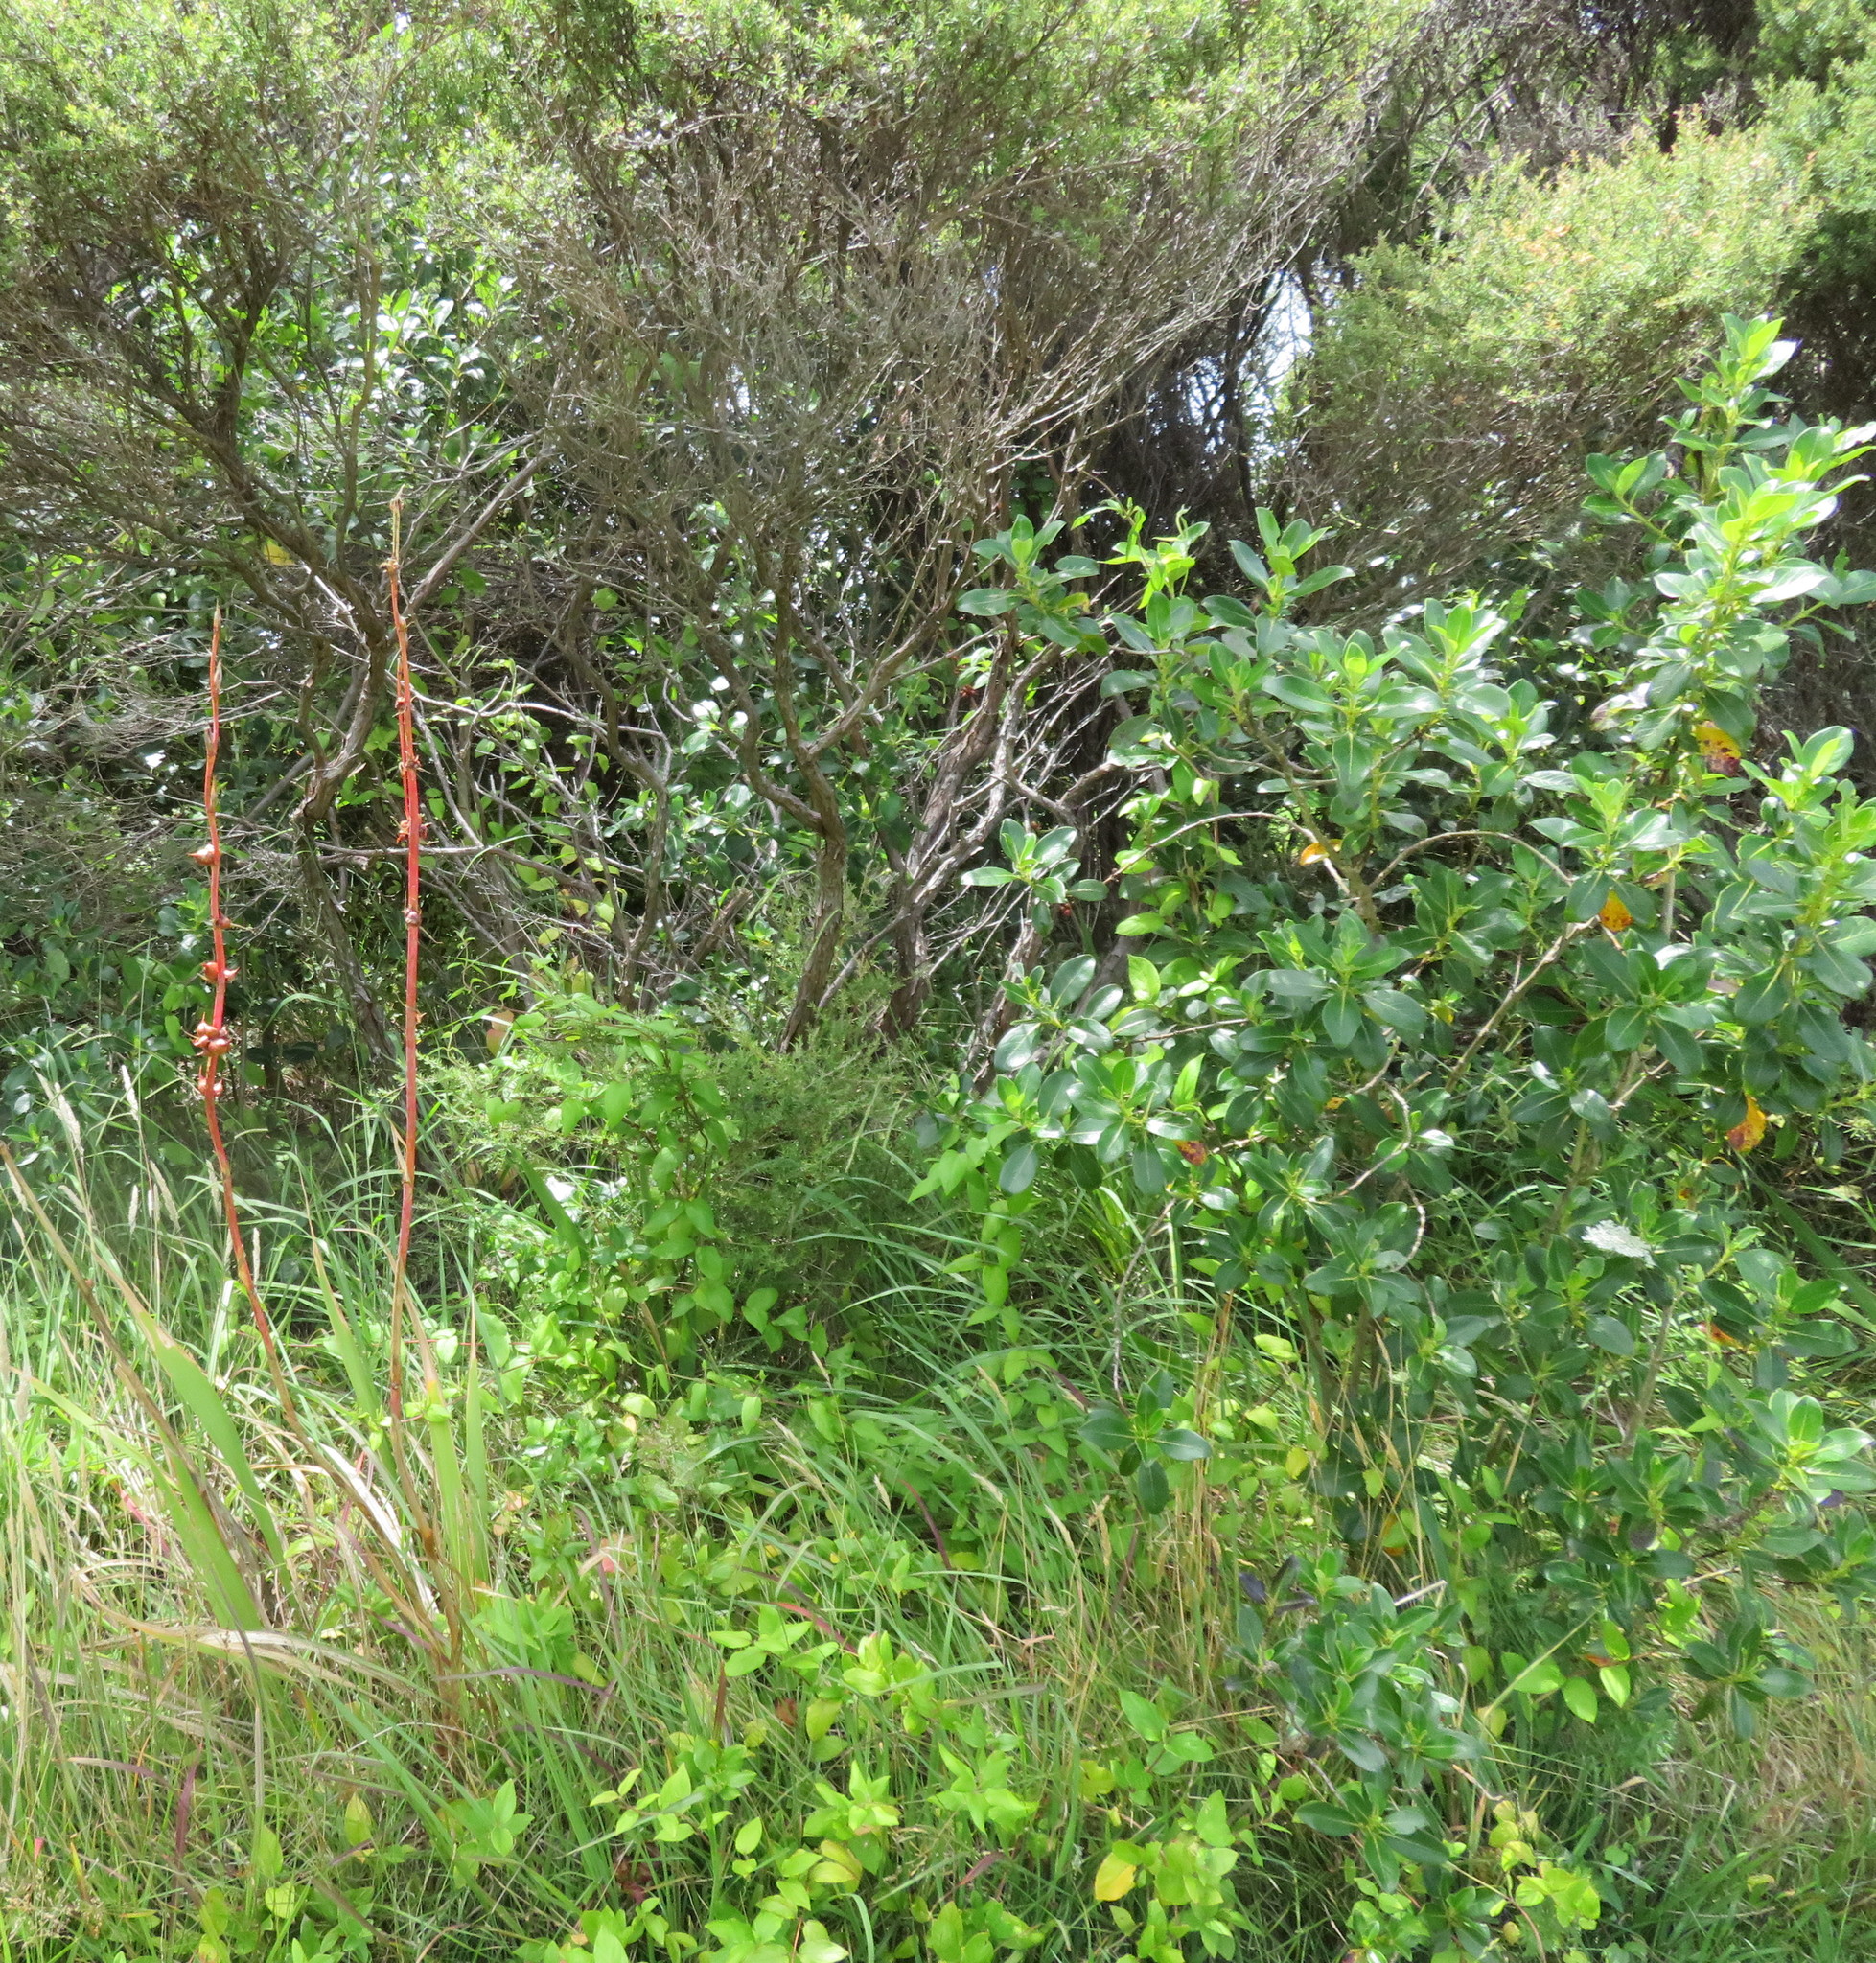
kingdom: Plantae
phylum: Tracheophyta
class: Magnoliopsida
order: Gentianales
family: Rubiaceae
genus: Coprosma
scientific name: Coprosma robusta
